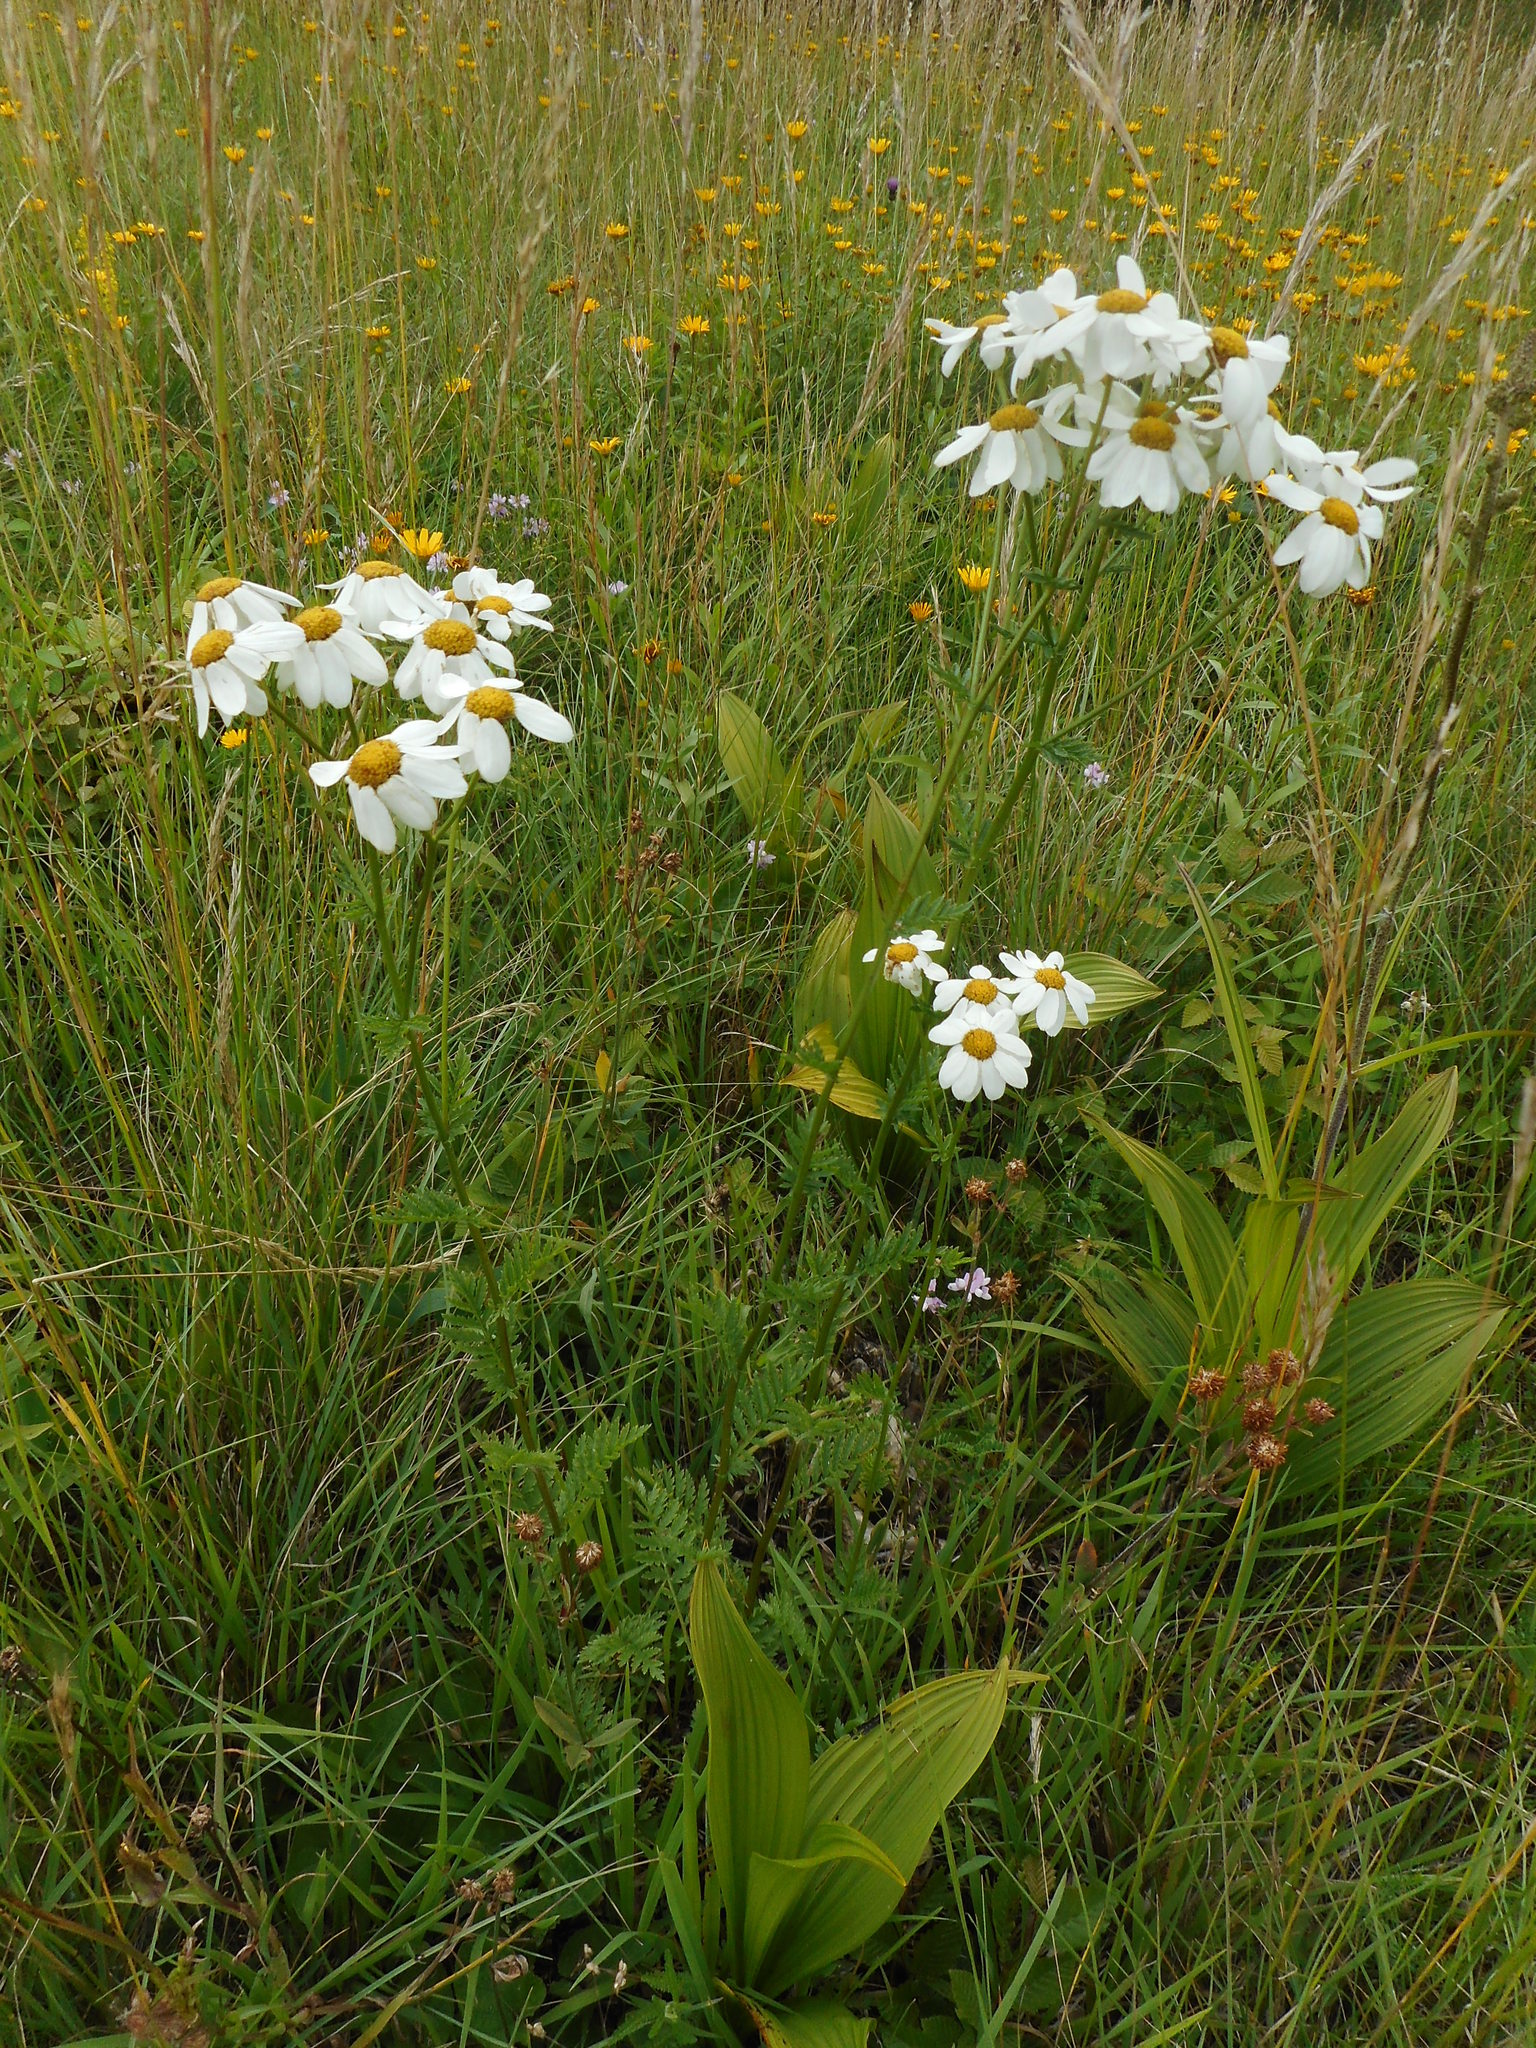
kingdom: Plantae
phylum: Tracheophyta
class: Magnoliopsida
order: Asterales
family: Asteraceae
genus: Tanacetum
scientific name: Tanacetum corymbosum
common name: Scentless feverfew
